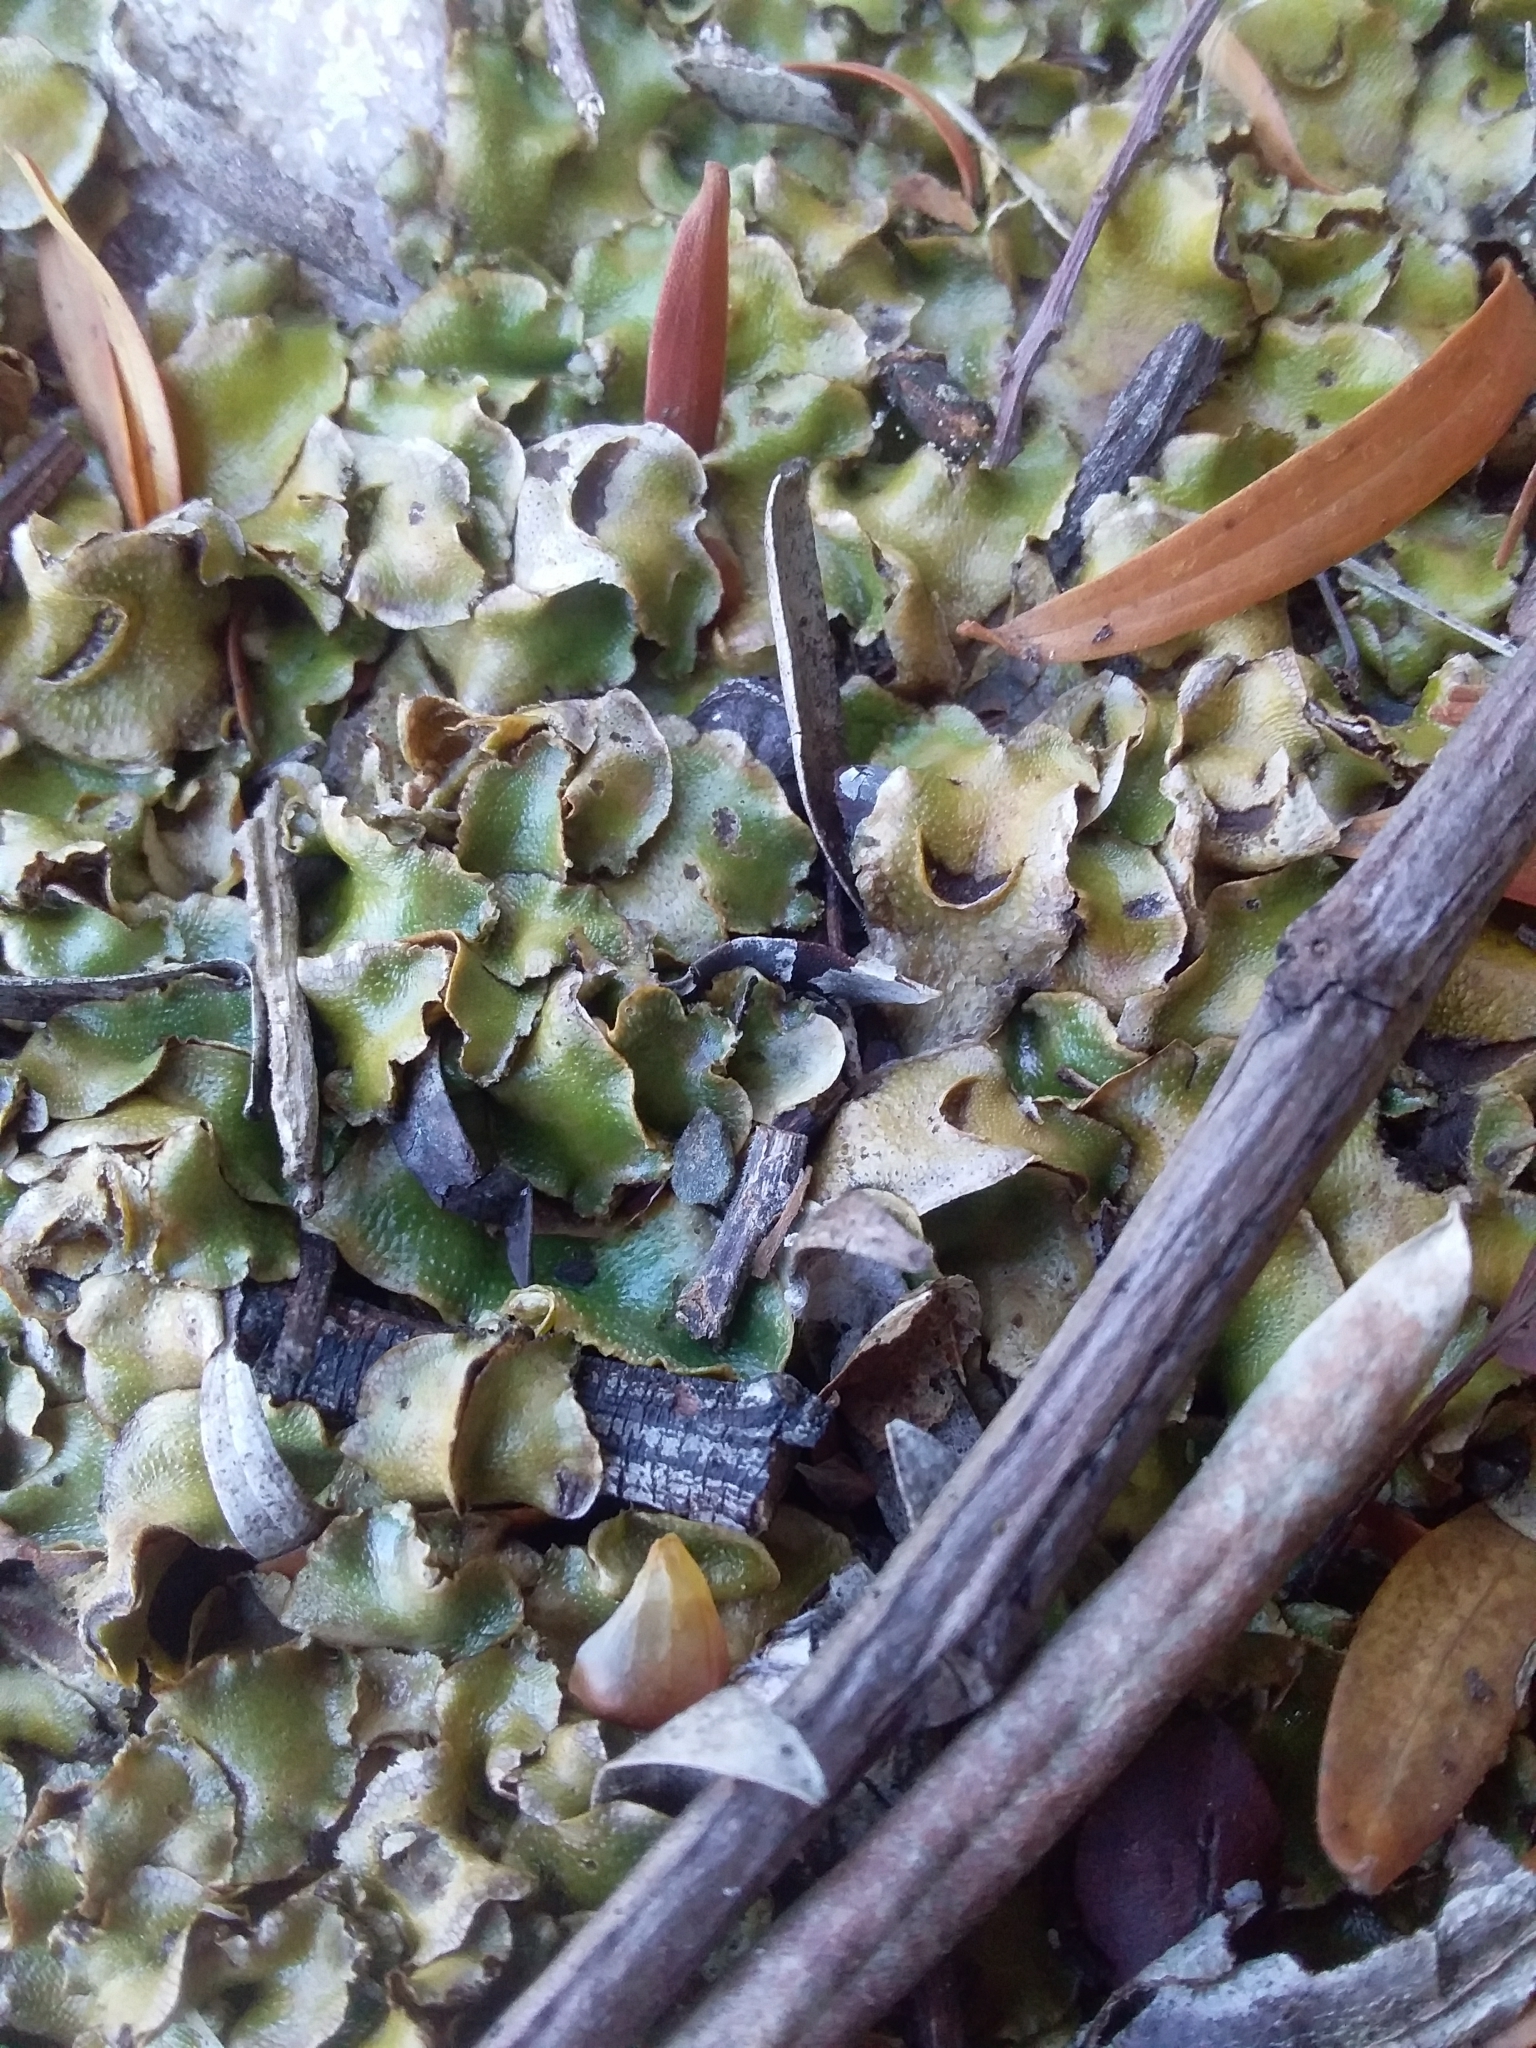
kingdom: Plantae
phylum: Marchantiophyta
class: Marchantiopsida
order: Lunulariales
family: Lunulariaceae
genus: Lunularia
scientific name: Lunularia cruciata
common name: Crescent-cup liverwort
